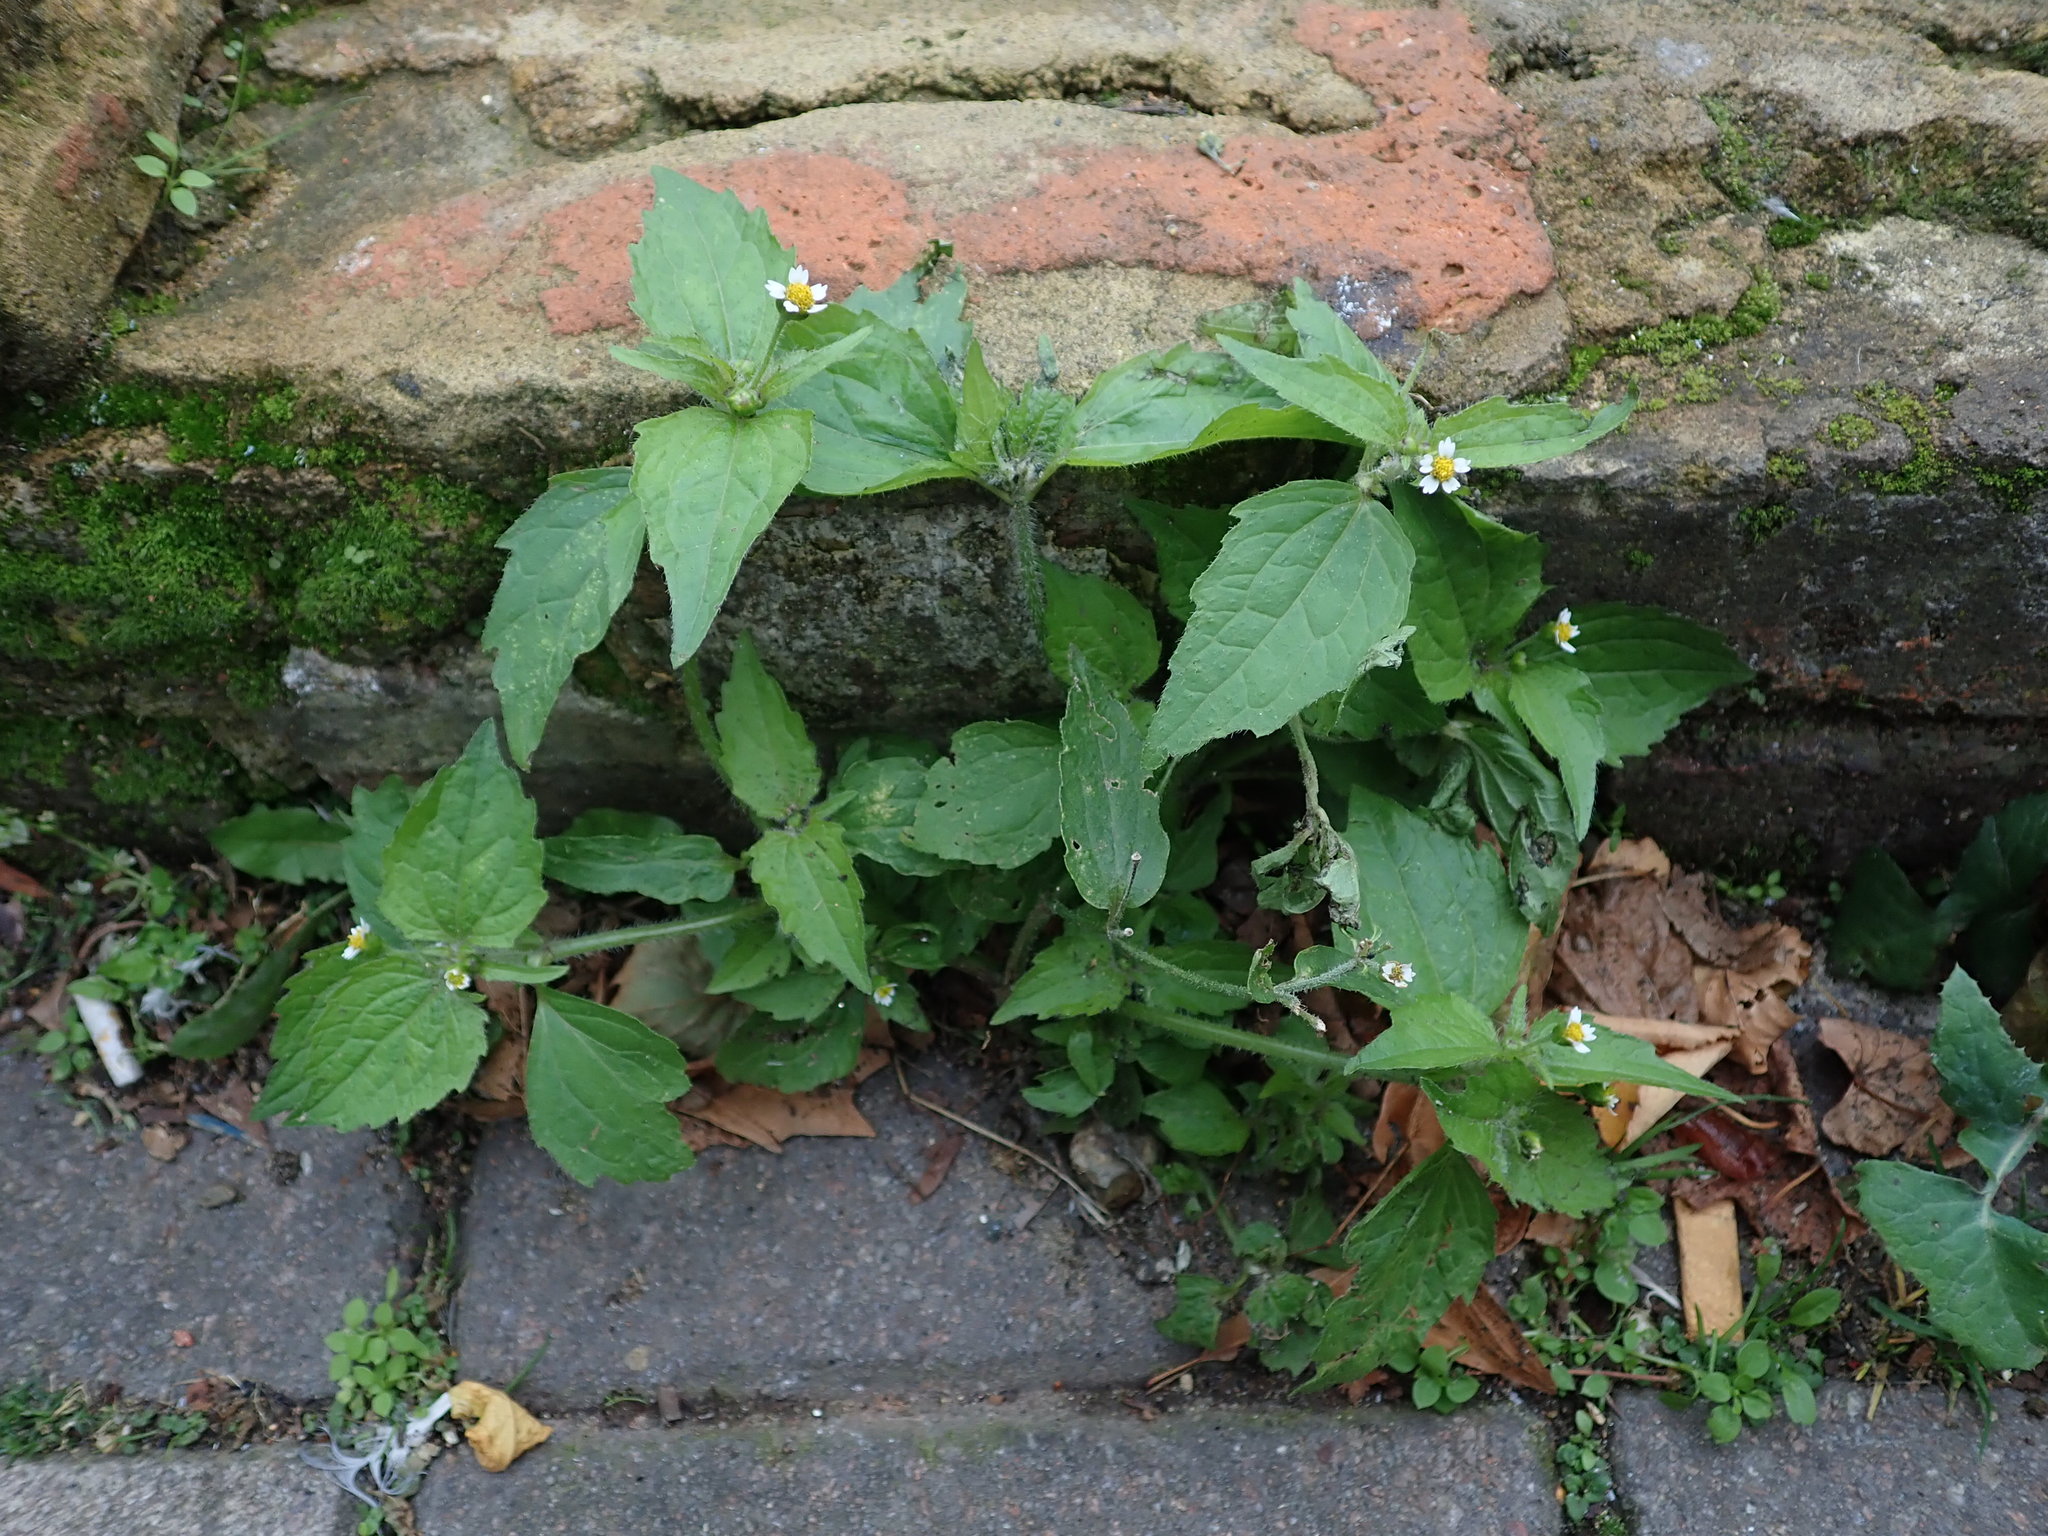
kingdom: Plantae
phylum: Tracheophyta
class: Magnoliopsida
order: Asterales
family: Asteraceae
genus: Galinsoga
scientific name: Galinsoga quadriradiata
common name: Shaggy soldier
